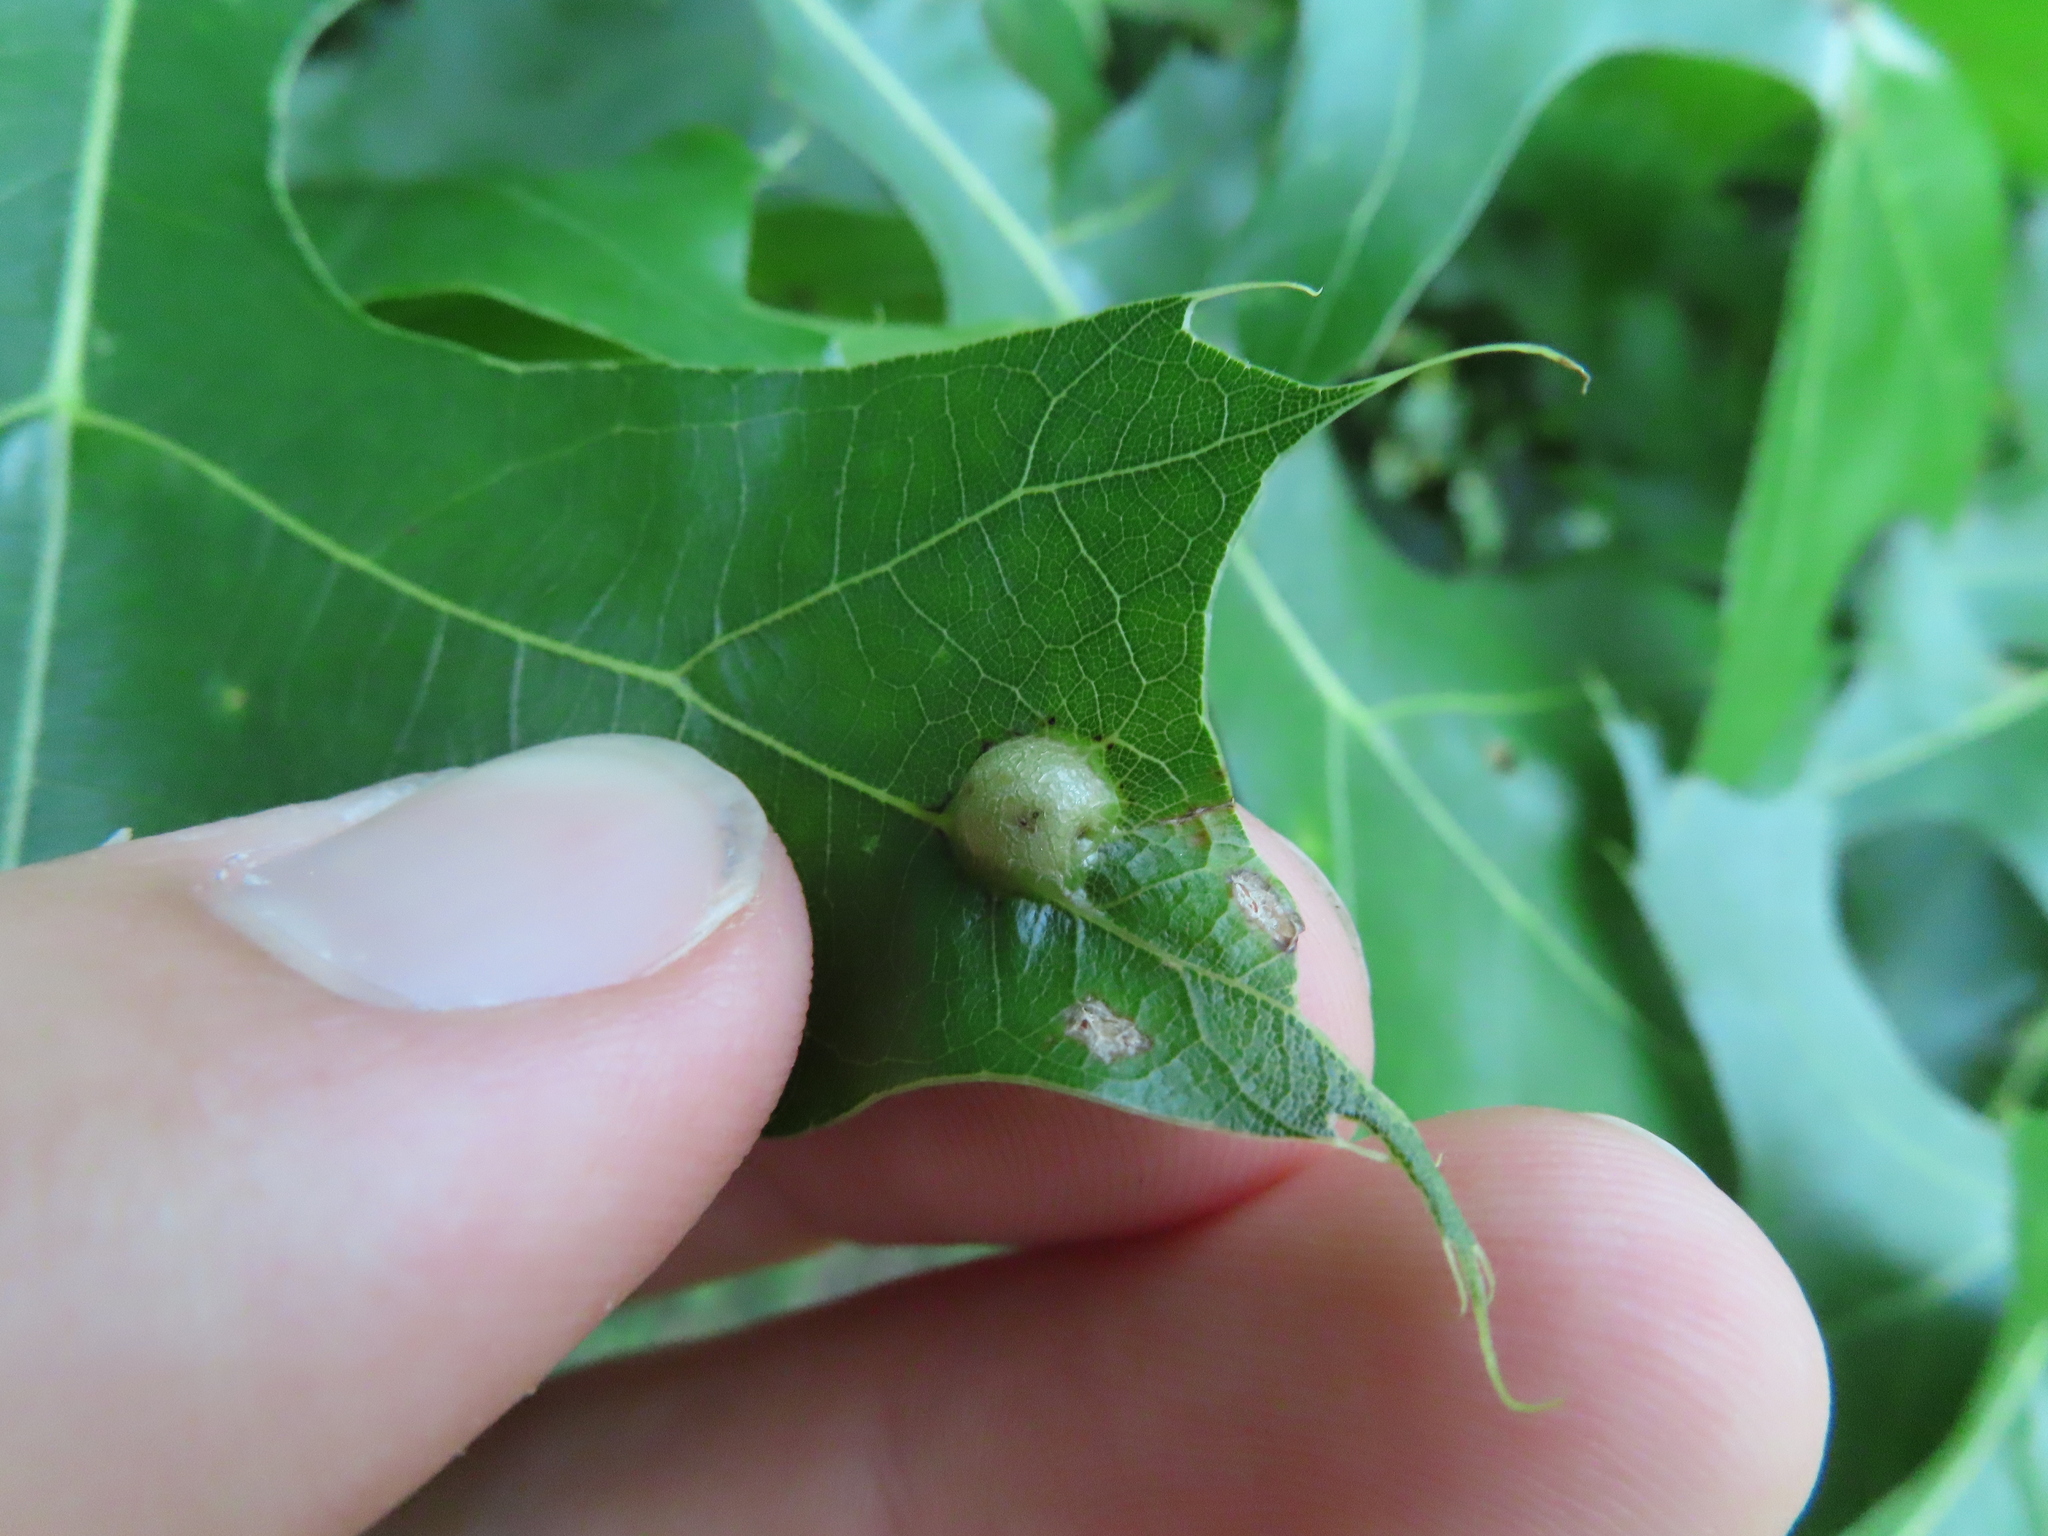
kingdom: Animalia
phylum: Arthropoda
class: Insecta
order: Diptera
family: Cecidomyiidae
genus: Polystepha
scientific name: Polystepha pilulae
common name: Oak leaf gall midge
